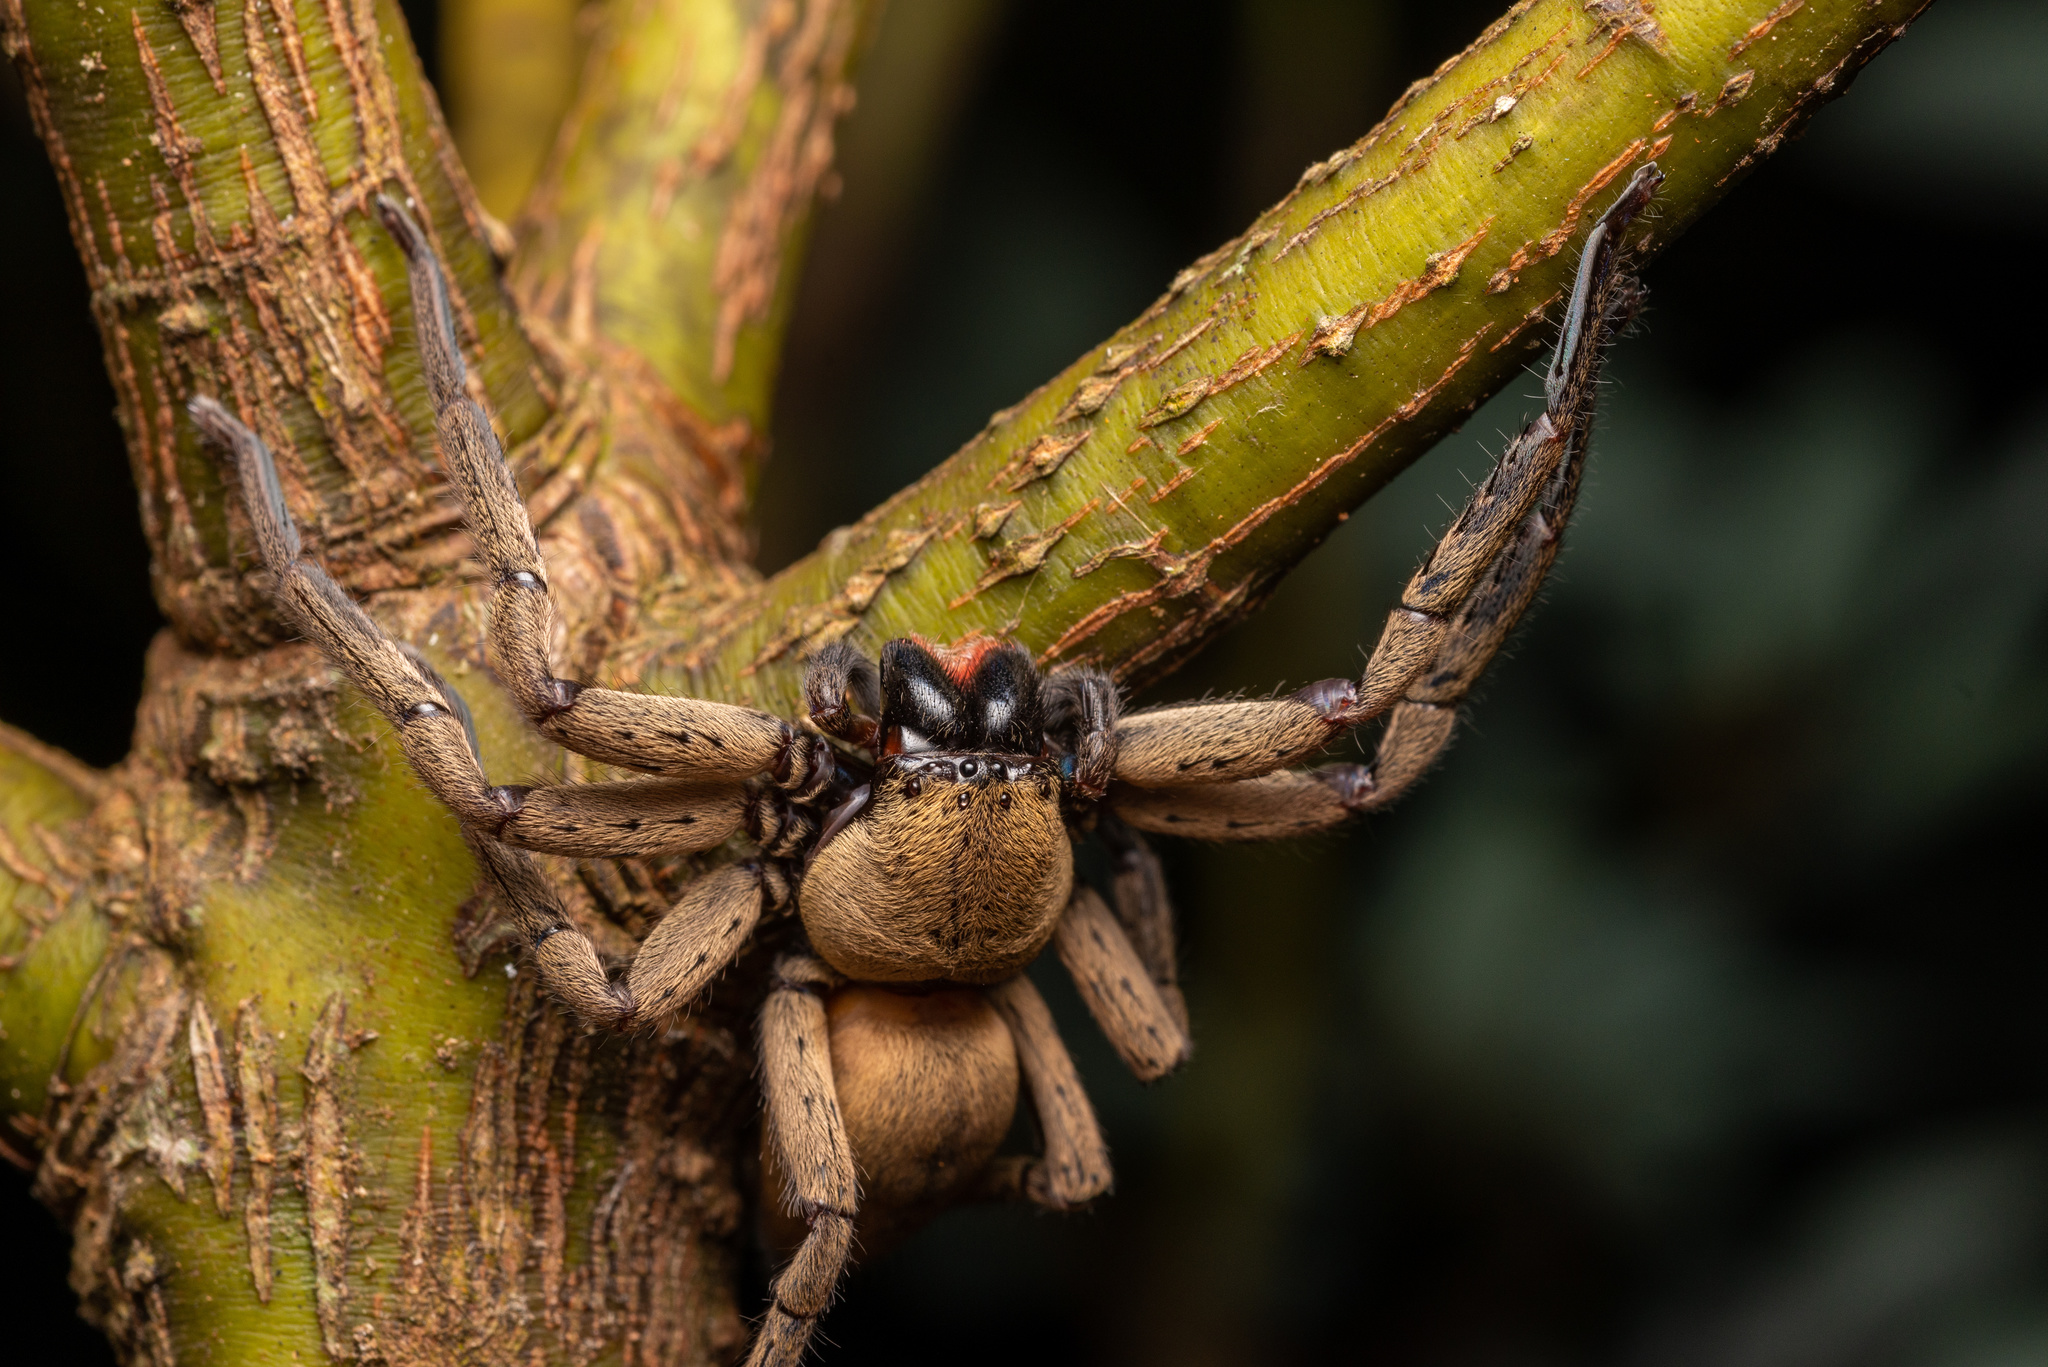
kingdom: Animalia
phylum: Arthropoda
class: Arachnida
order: Araneae
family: Sparassidae
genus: Thelcticopis
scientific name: Thelcticopis severa
